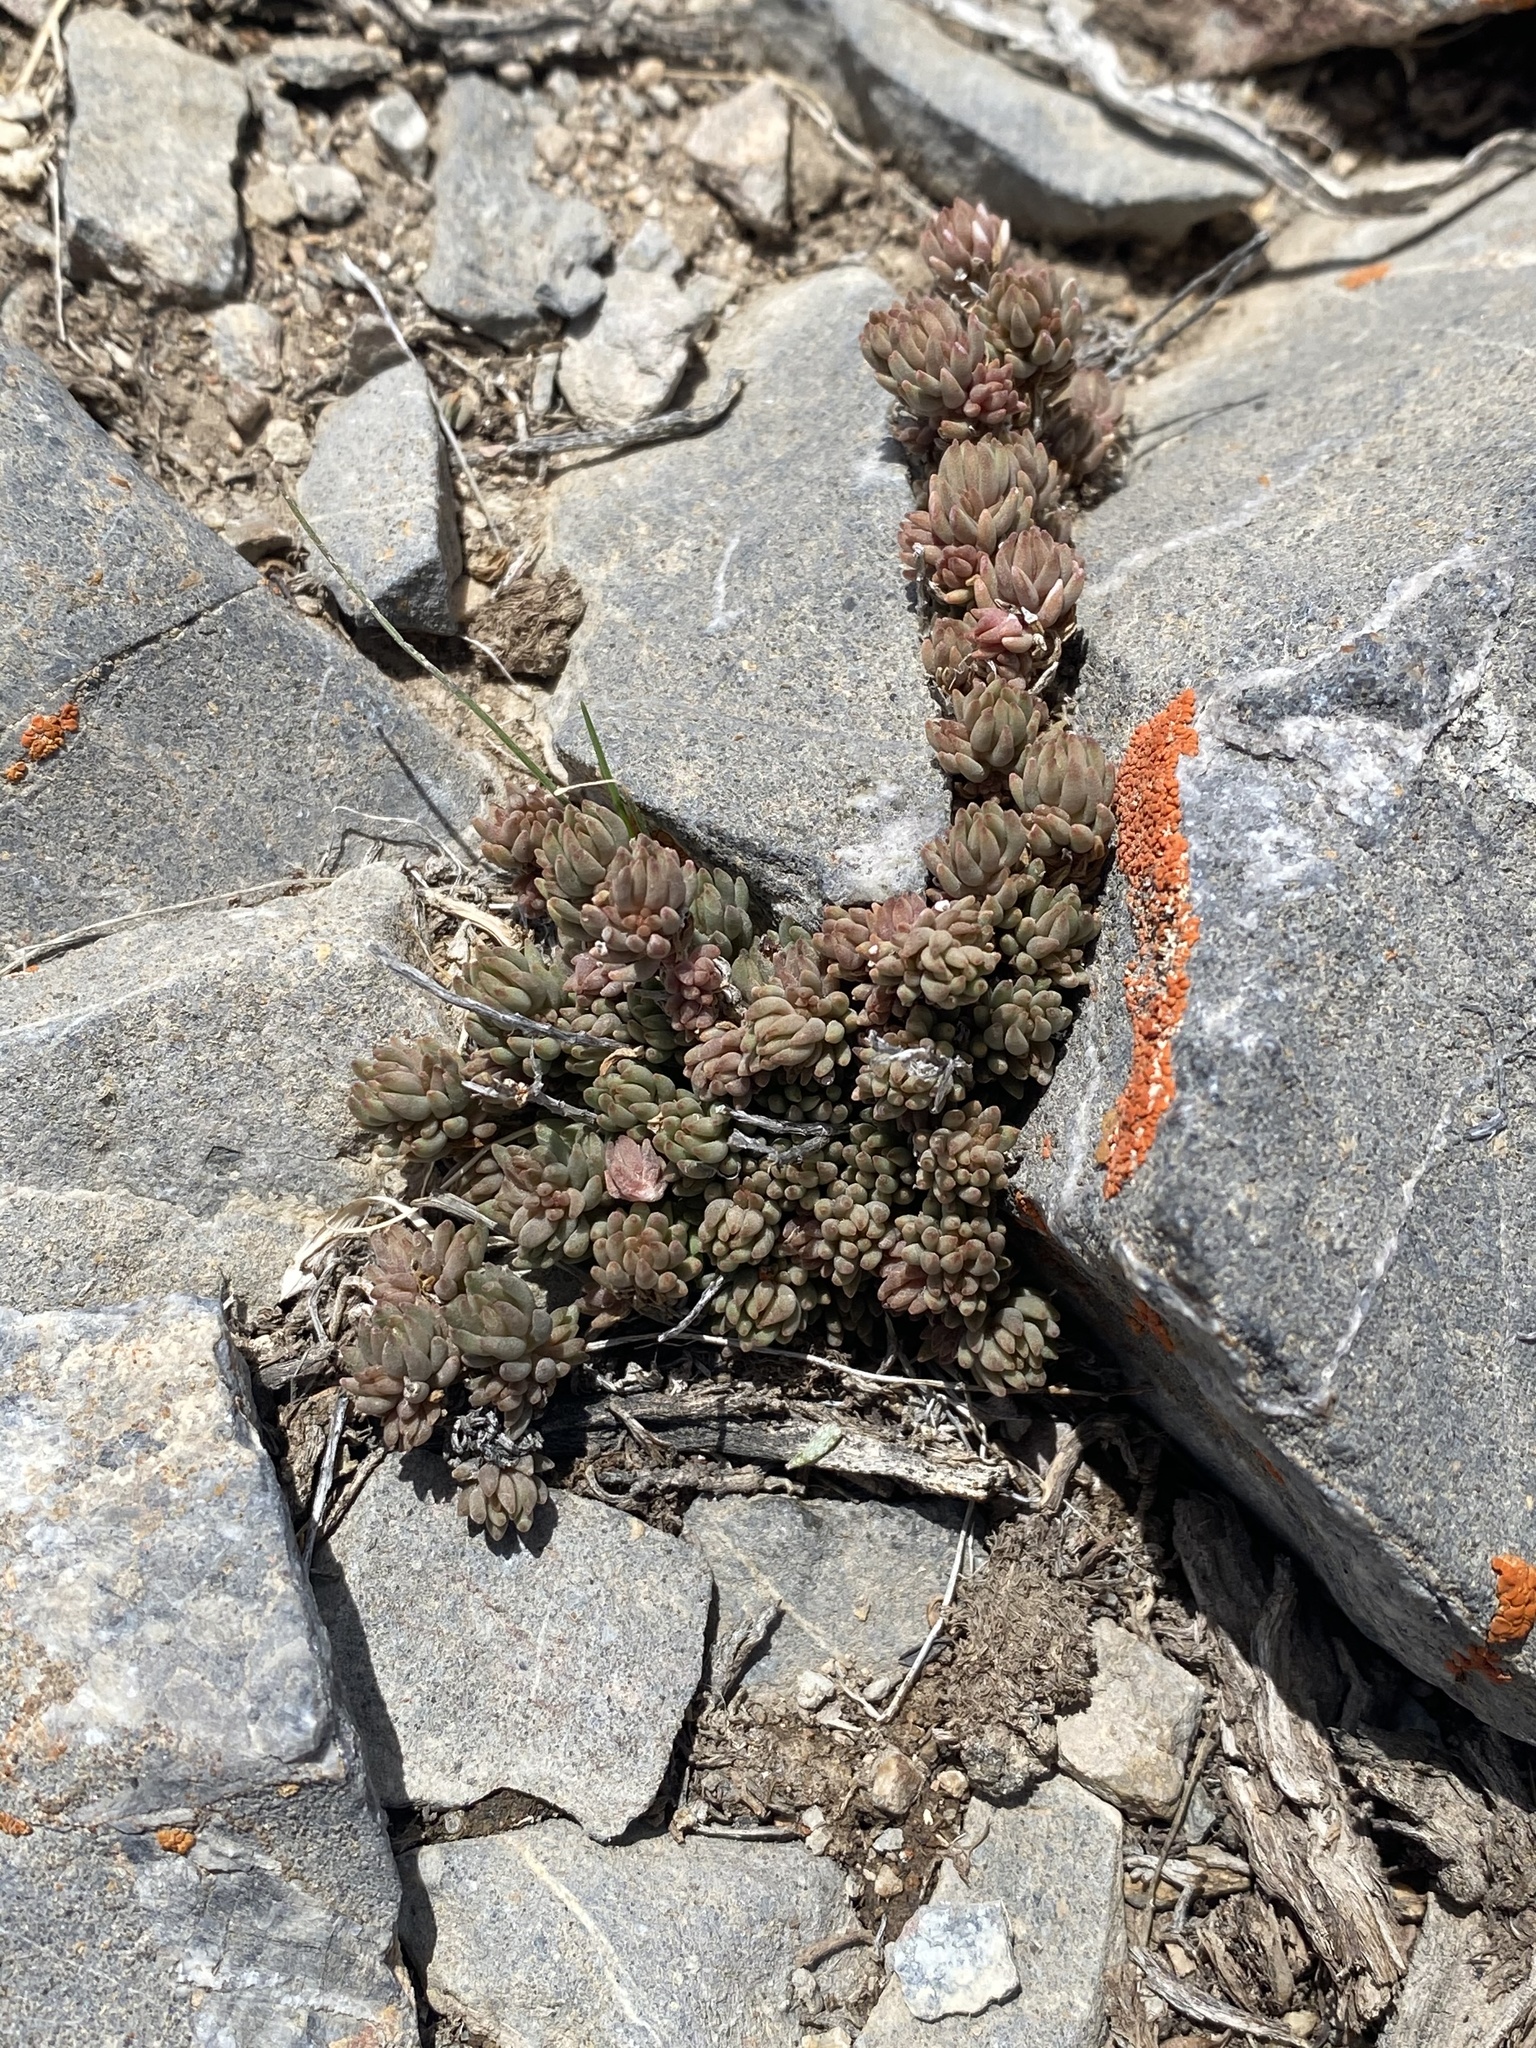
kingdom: Plantae
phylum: Tracheophyta
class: Magnoliopsida
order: Saxifragales
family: Crassulaceae
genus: Sedum
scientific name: Sedum lanceolatum
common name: Common stonecrop
